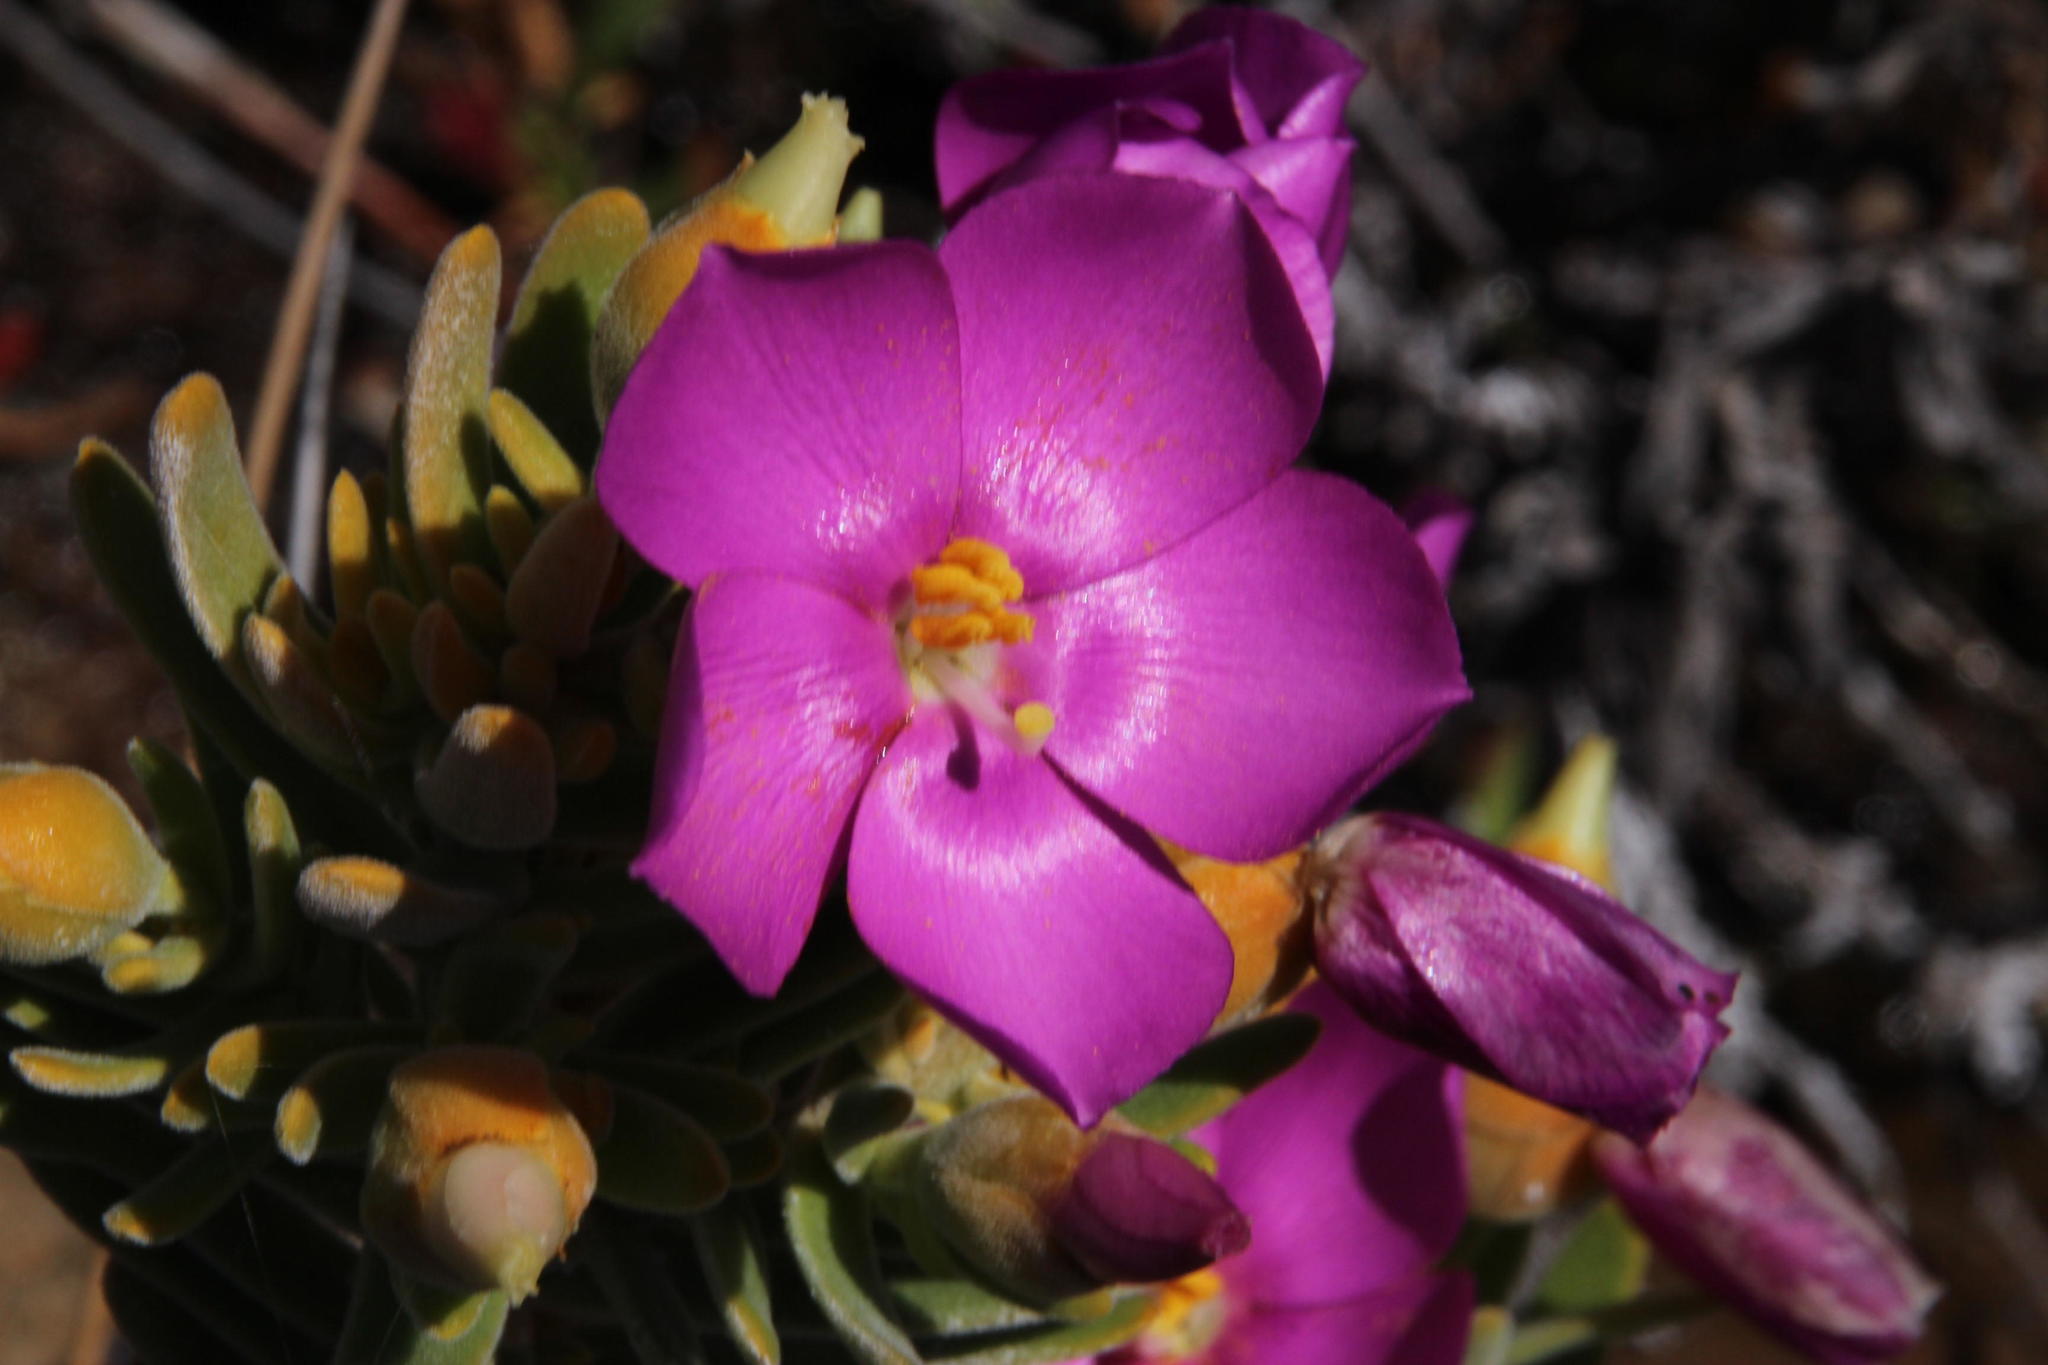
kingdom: Plantae
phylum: Tracheophyta
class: Magnoliopsida
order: Gentianales
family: Gentianaceae
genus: Orphium
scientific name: Orphium frutescens
